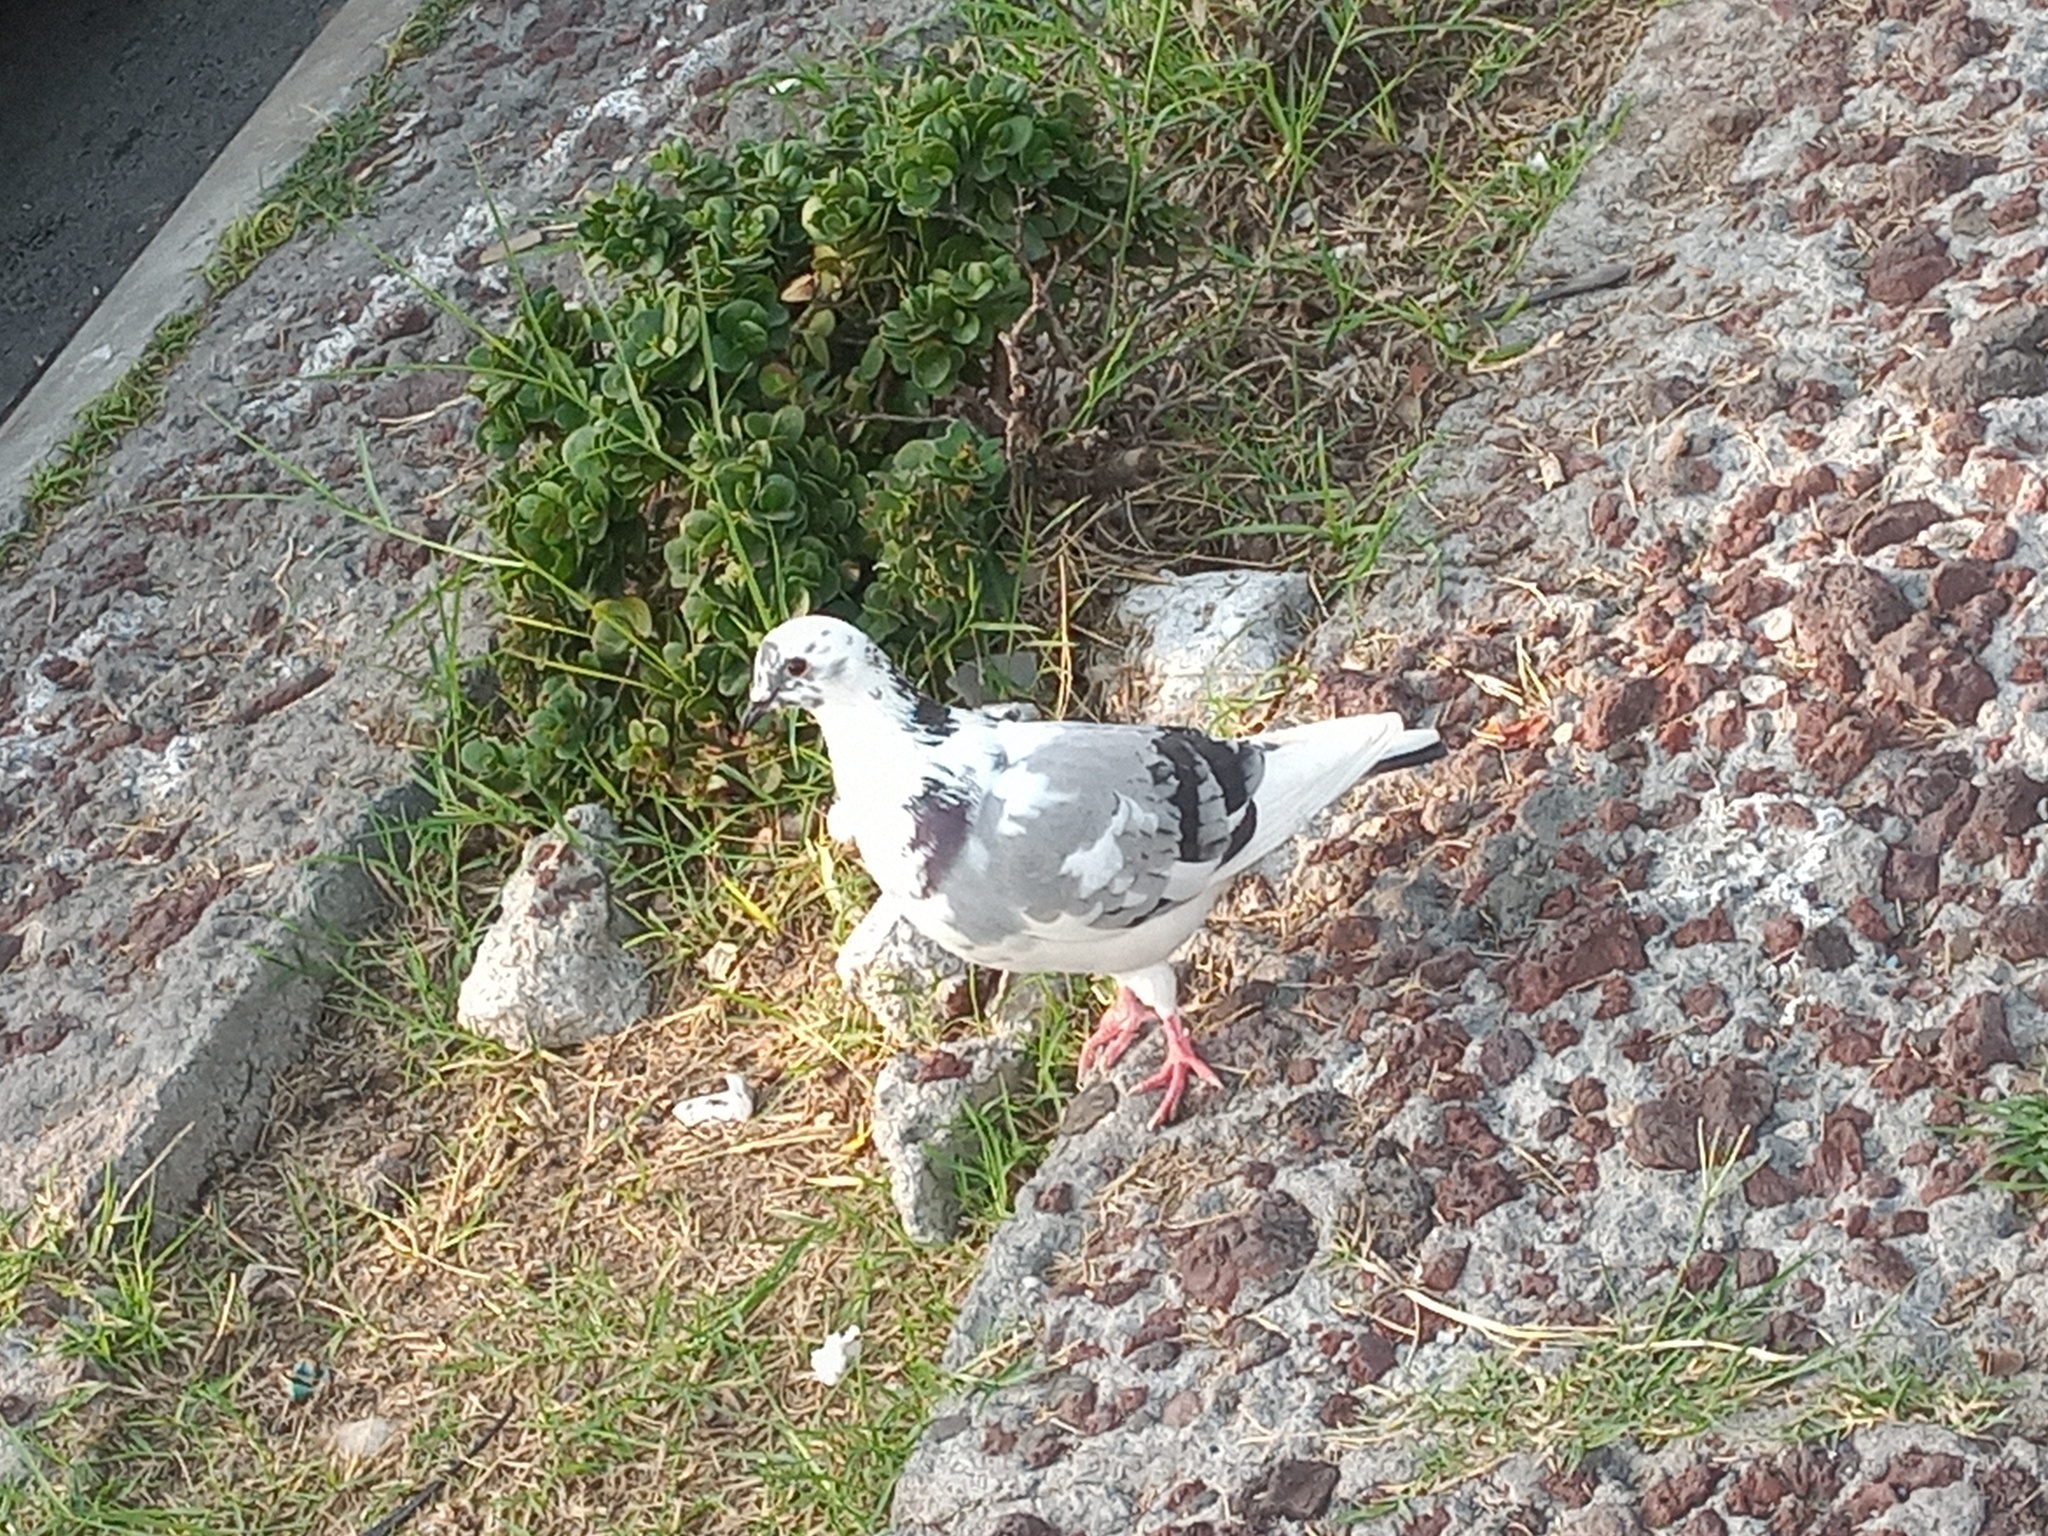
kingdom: Animalia
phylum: Chordata
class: Aves
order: Columbiformes
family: Columbidae
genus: Columba
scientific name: Columba livia
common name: Rock pigeon
